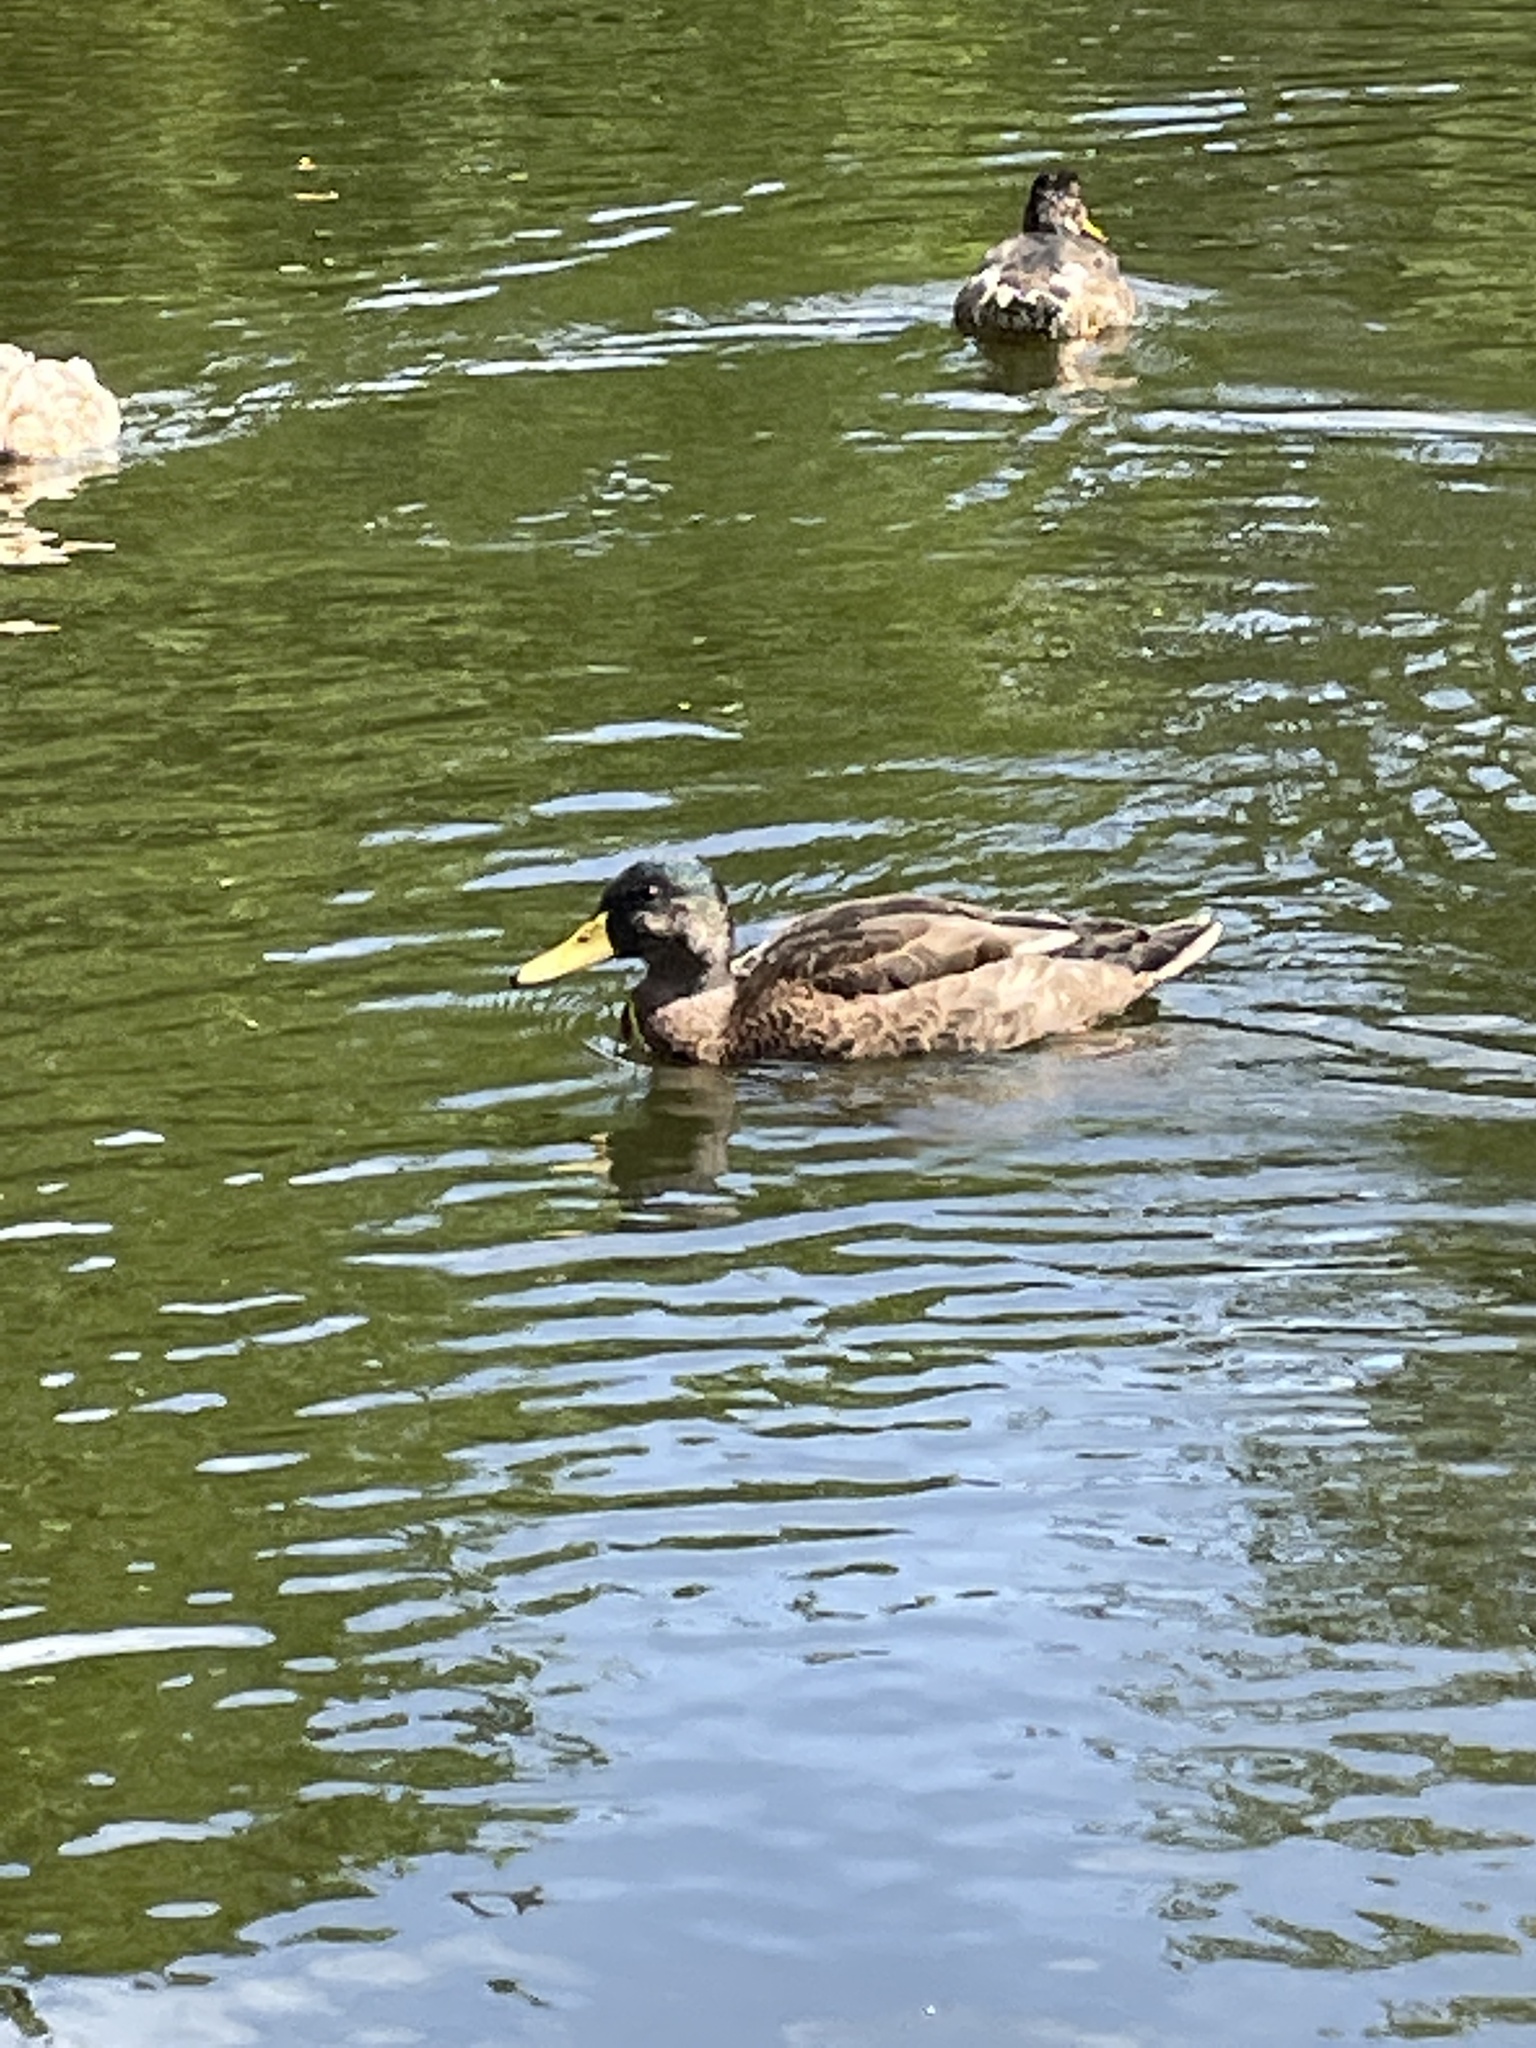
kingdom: Animalia
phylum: Chordata
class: Aves
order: Anseriformes
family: Anatidae
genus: Anas
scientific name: Anas platyrhynchos
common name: Mallard
